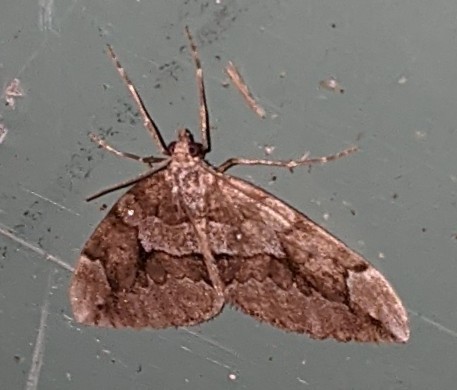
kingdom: Animalia
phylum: Arthropoda
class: Insecta
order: Lepidoptera
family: Geometridae
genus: Thera
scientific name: Thera juniperata
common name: Juniper carpet
